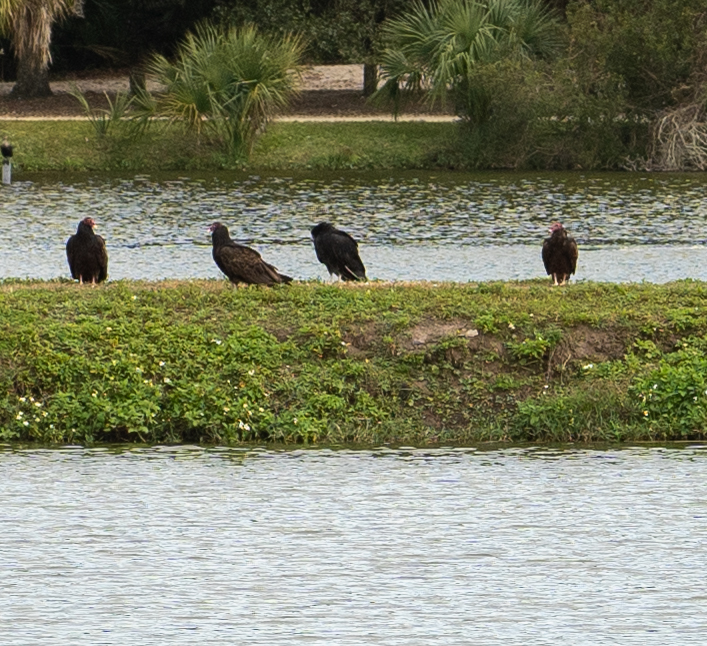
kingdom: Animalia
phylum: Chordata
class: Aves
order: Accipitriformes
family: Cathartidae
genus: Cathartes
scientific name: Cathartes aura
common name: Turkey vulture
